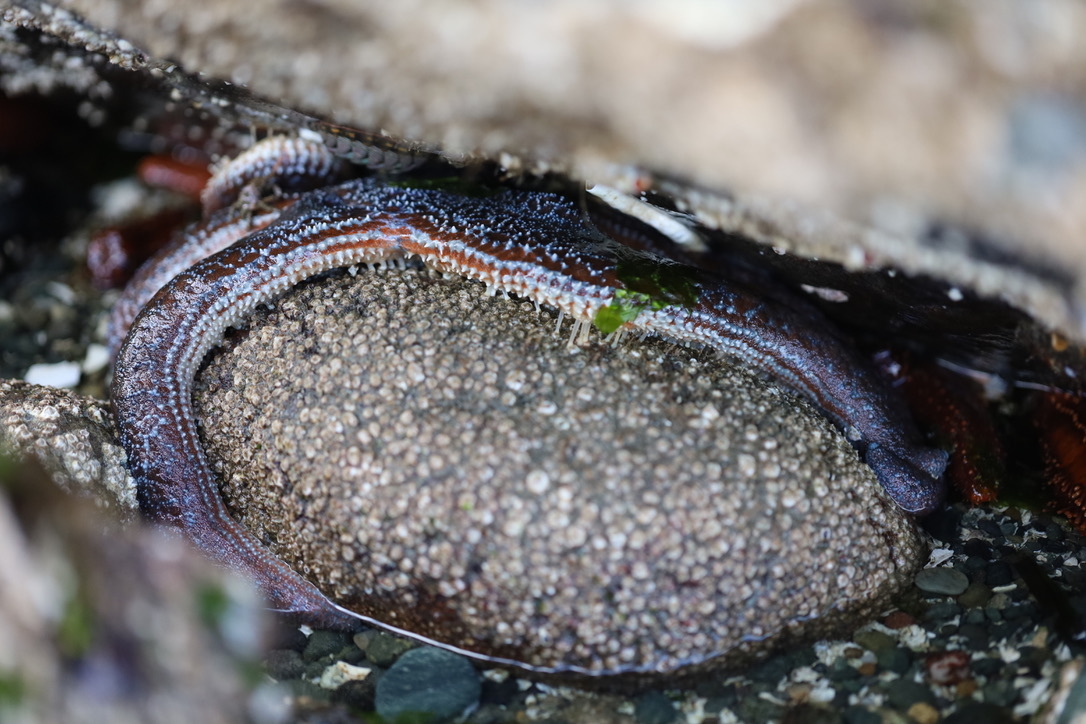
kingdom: Animalia
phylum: Echinodermata
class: Asteroidea
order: Forcipulatida
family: Asteriidae
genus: Evasterias
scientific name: Evasterias troschelii
